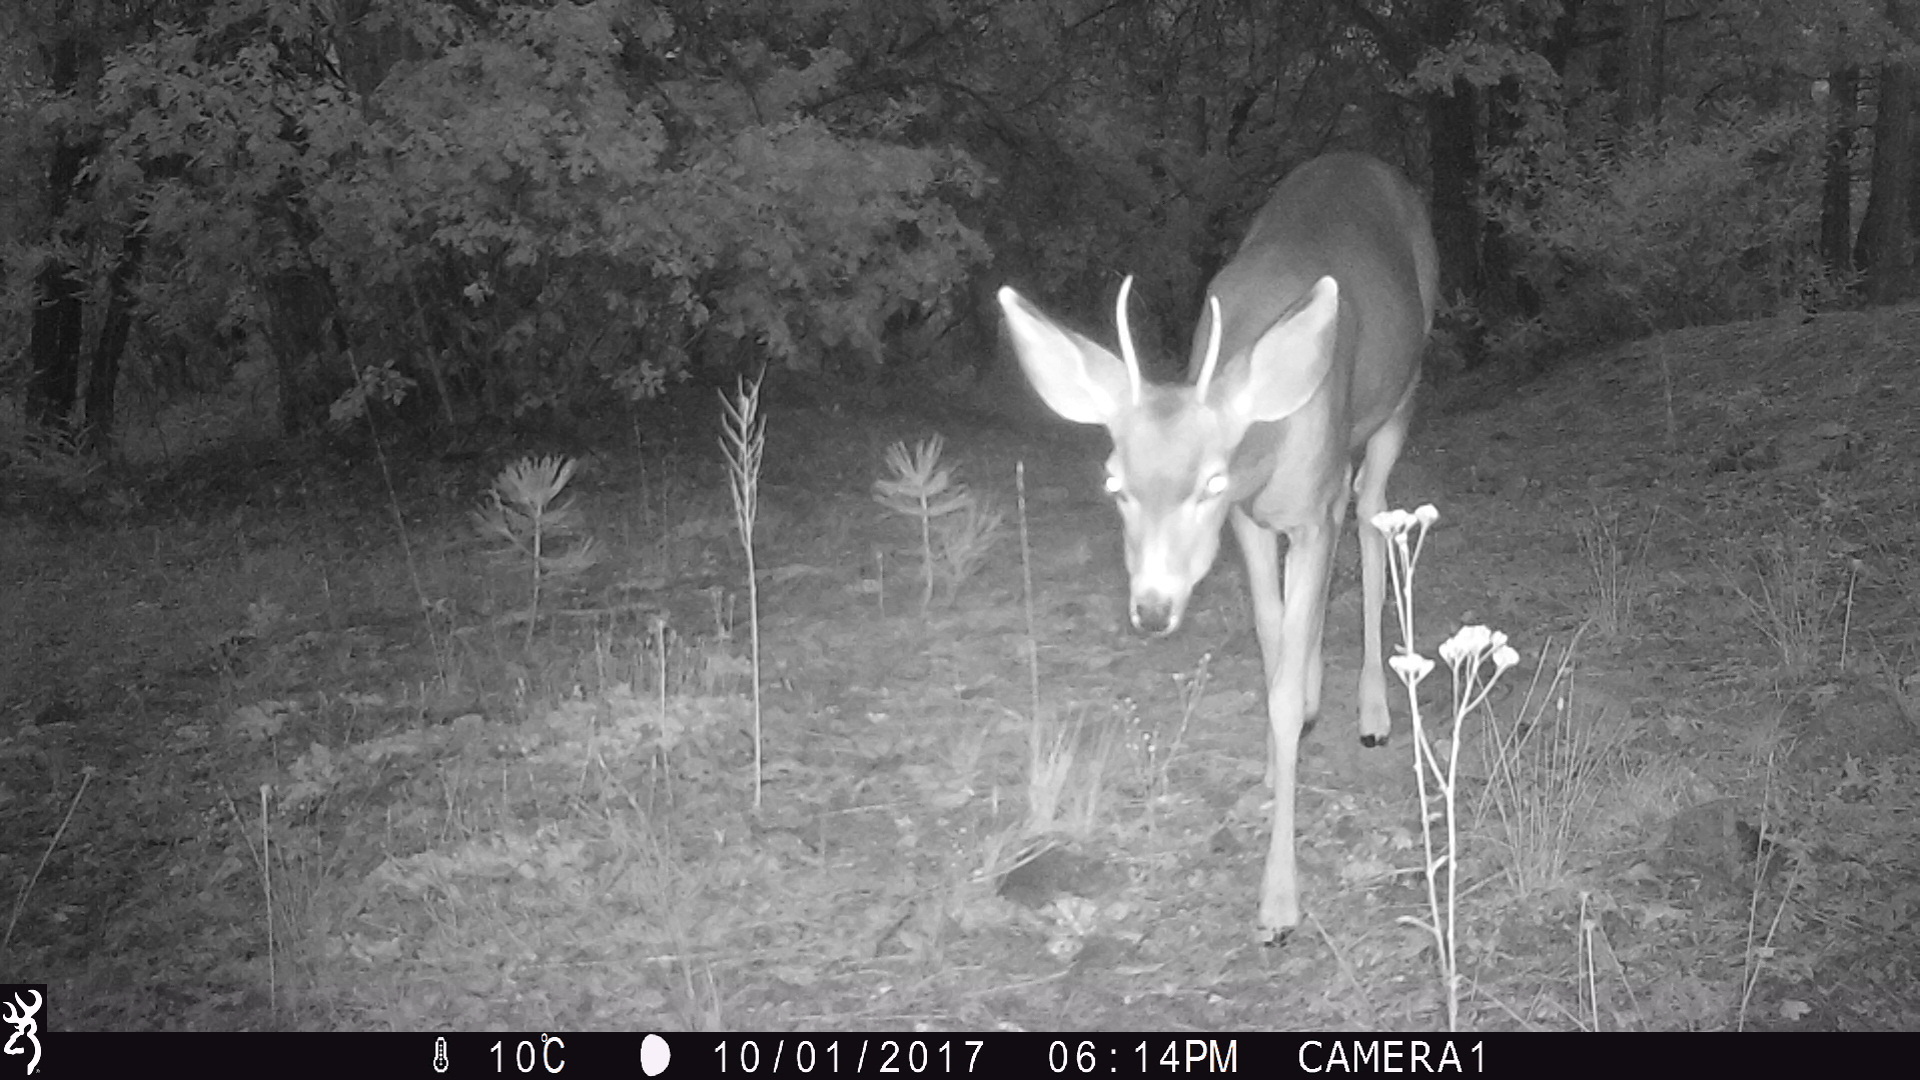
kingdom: Animalia
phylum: Chordata
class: Mammalia
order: Artiodactyla
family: Cervidae
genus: Odocoileus
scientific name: Odocoileus hemionus
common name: Mule deer
